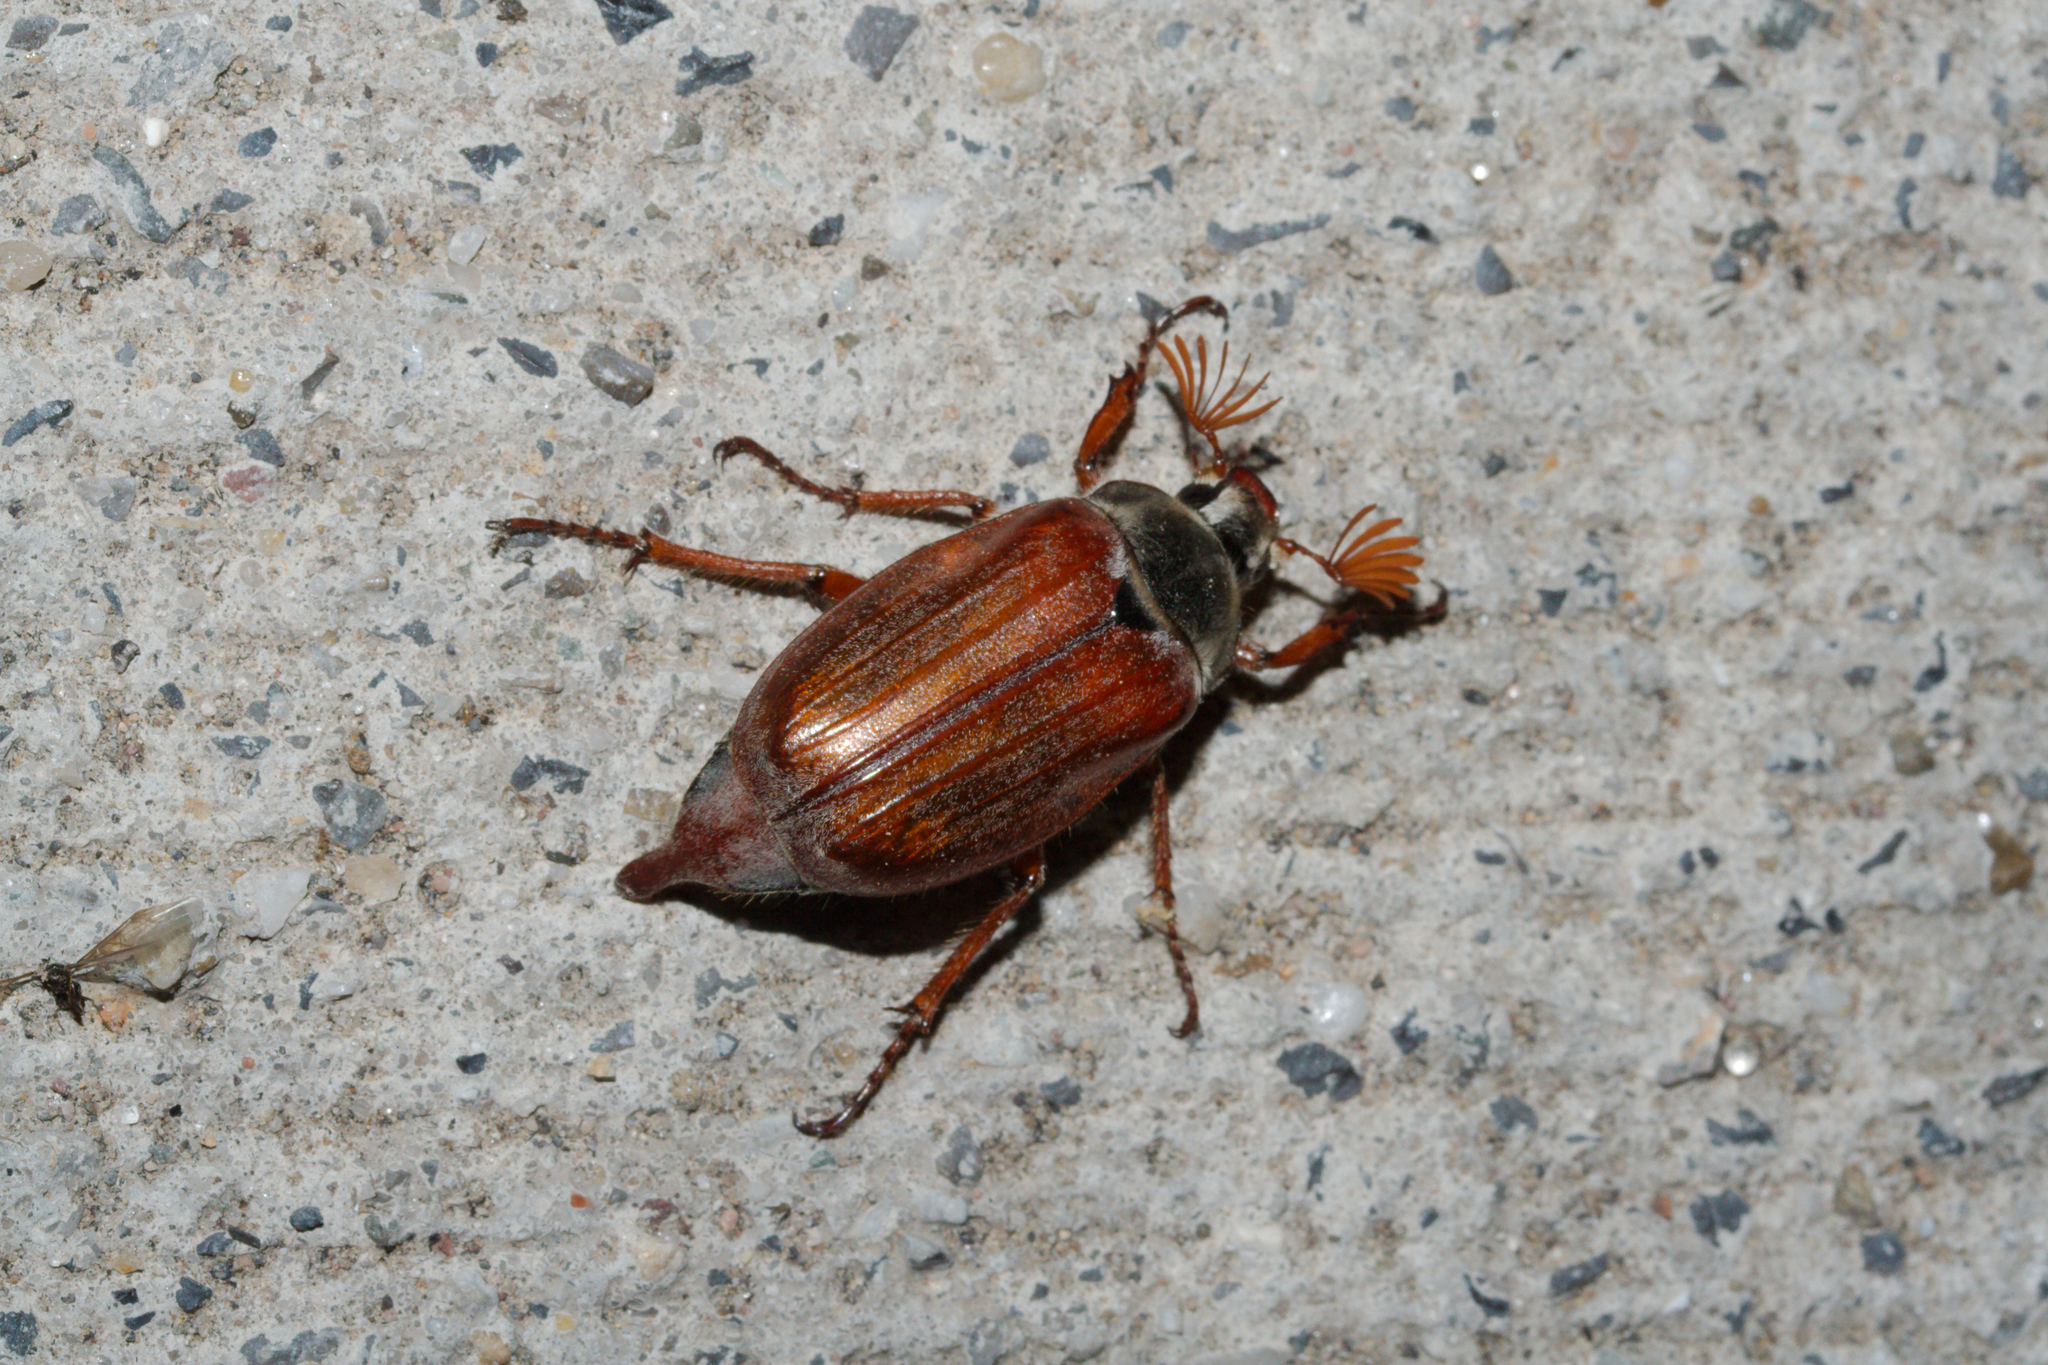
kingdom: Animalia
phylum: Arthropoda
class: Insecta
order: Coleoptera
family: Scarabaeidae
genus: Melolontha
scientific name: Melolontha melolontha
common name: Cockchafer maybeetle
